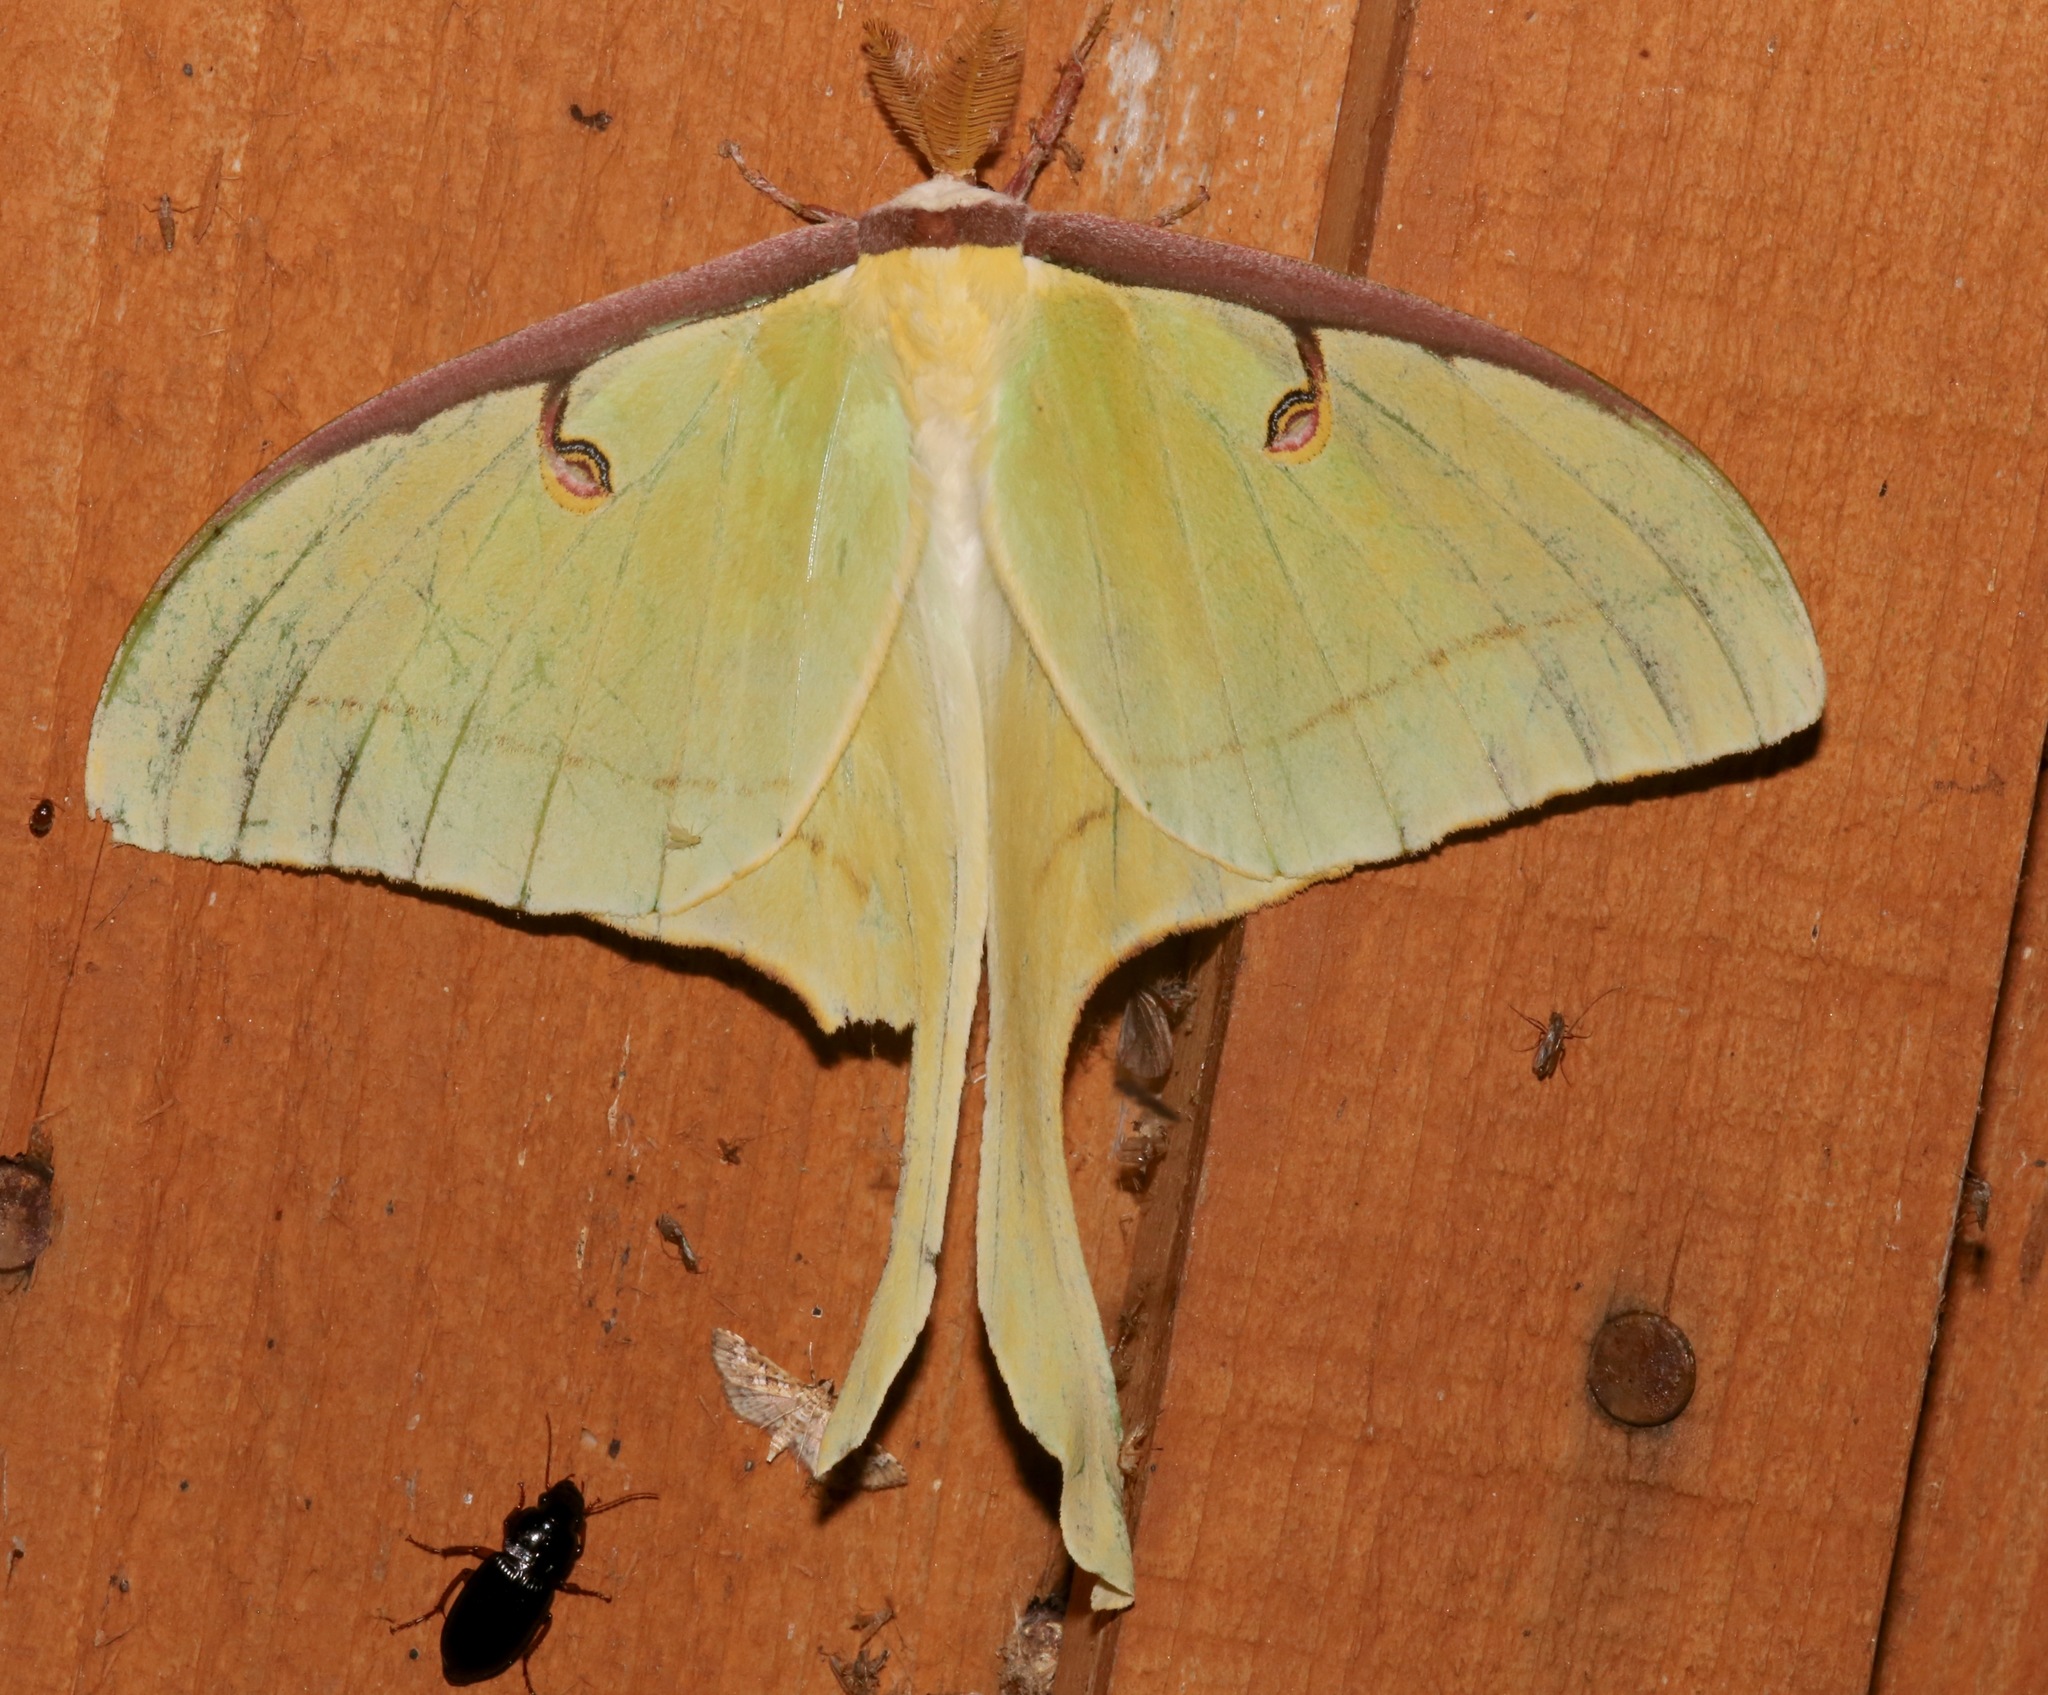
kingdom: Animalia
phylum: Arthropoda
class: Insecta
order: Lepidoptera
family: Saturniidae
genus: Actias
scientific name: Actias luna
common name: Luna moth
